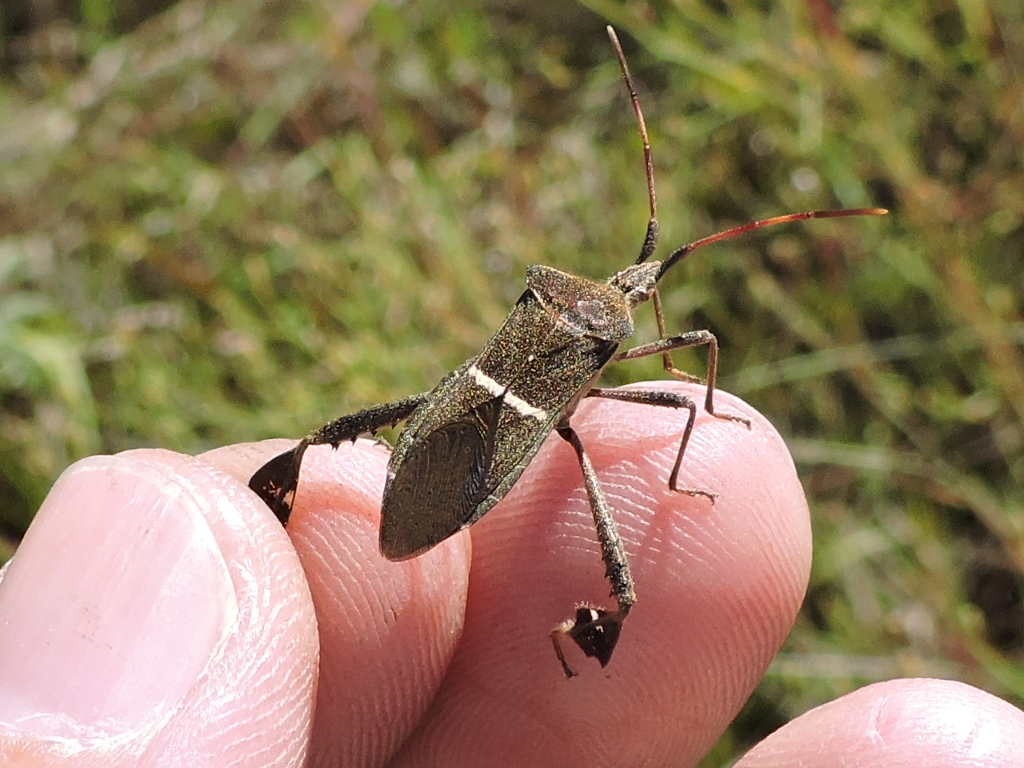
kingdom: Animalia
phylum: Arthropoda
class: Insecta
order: Hemiptera
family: Coreidae
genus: Leptoglossus
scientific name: Leptoglossus phyllopus
